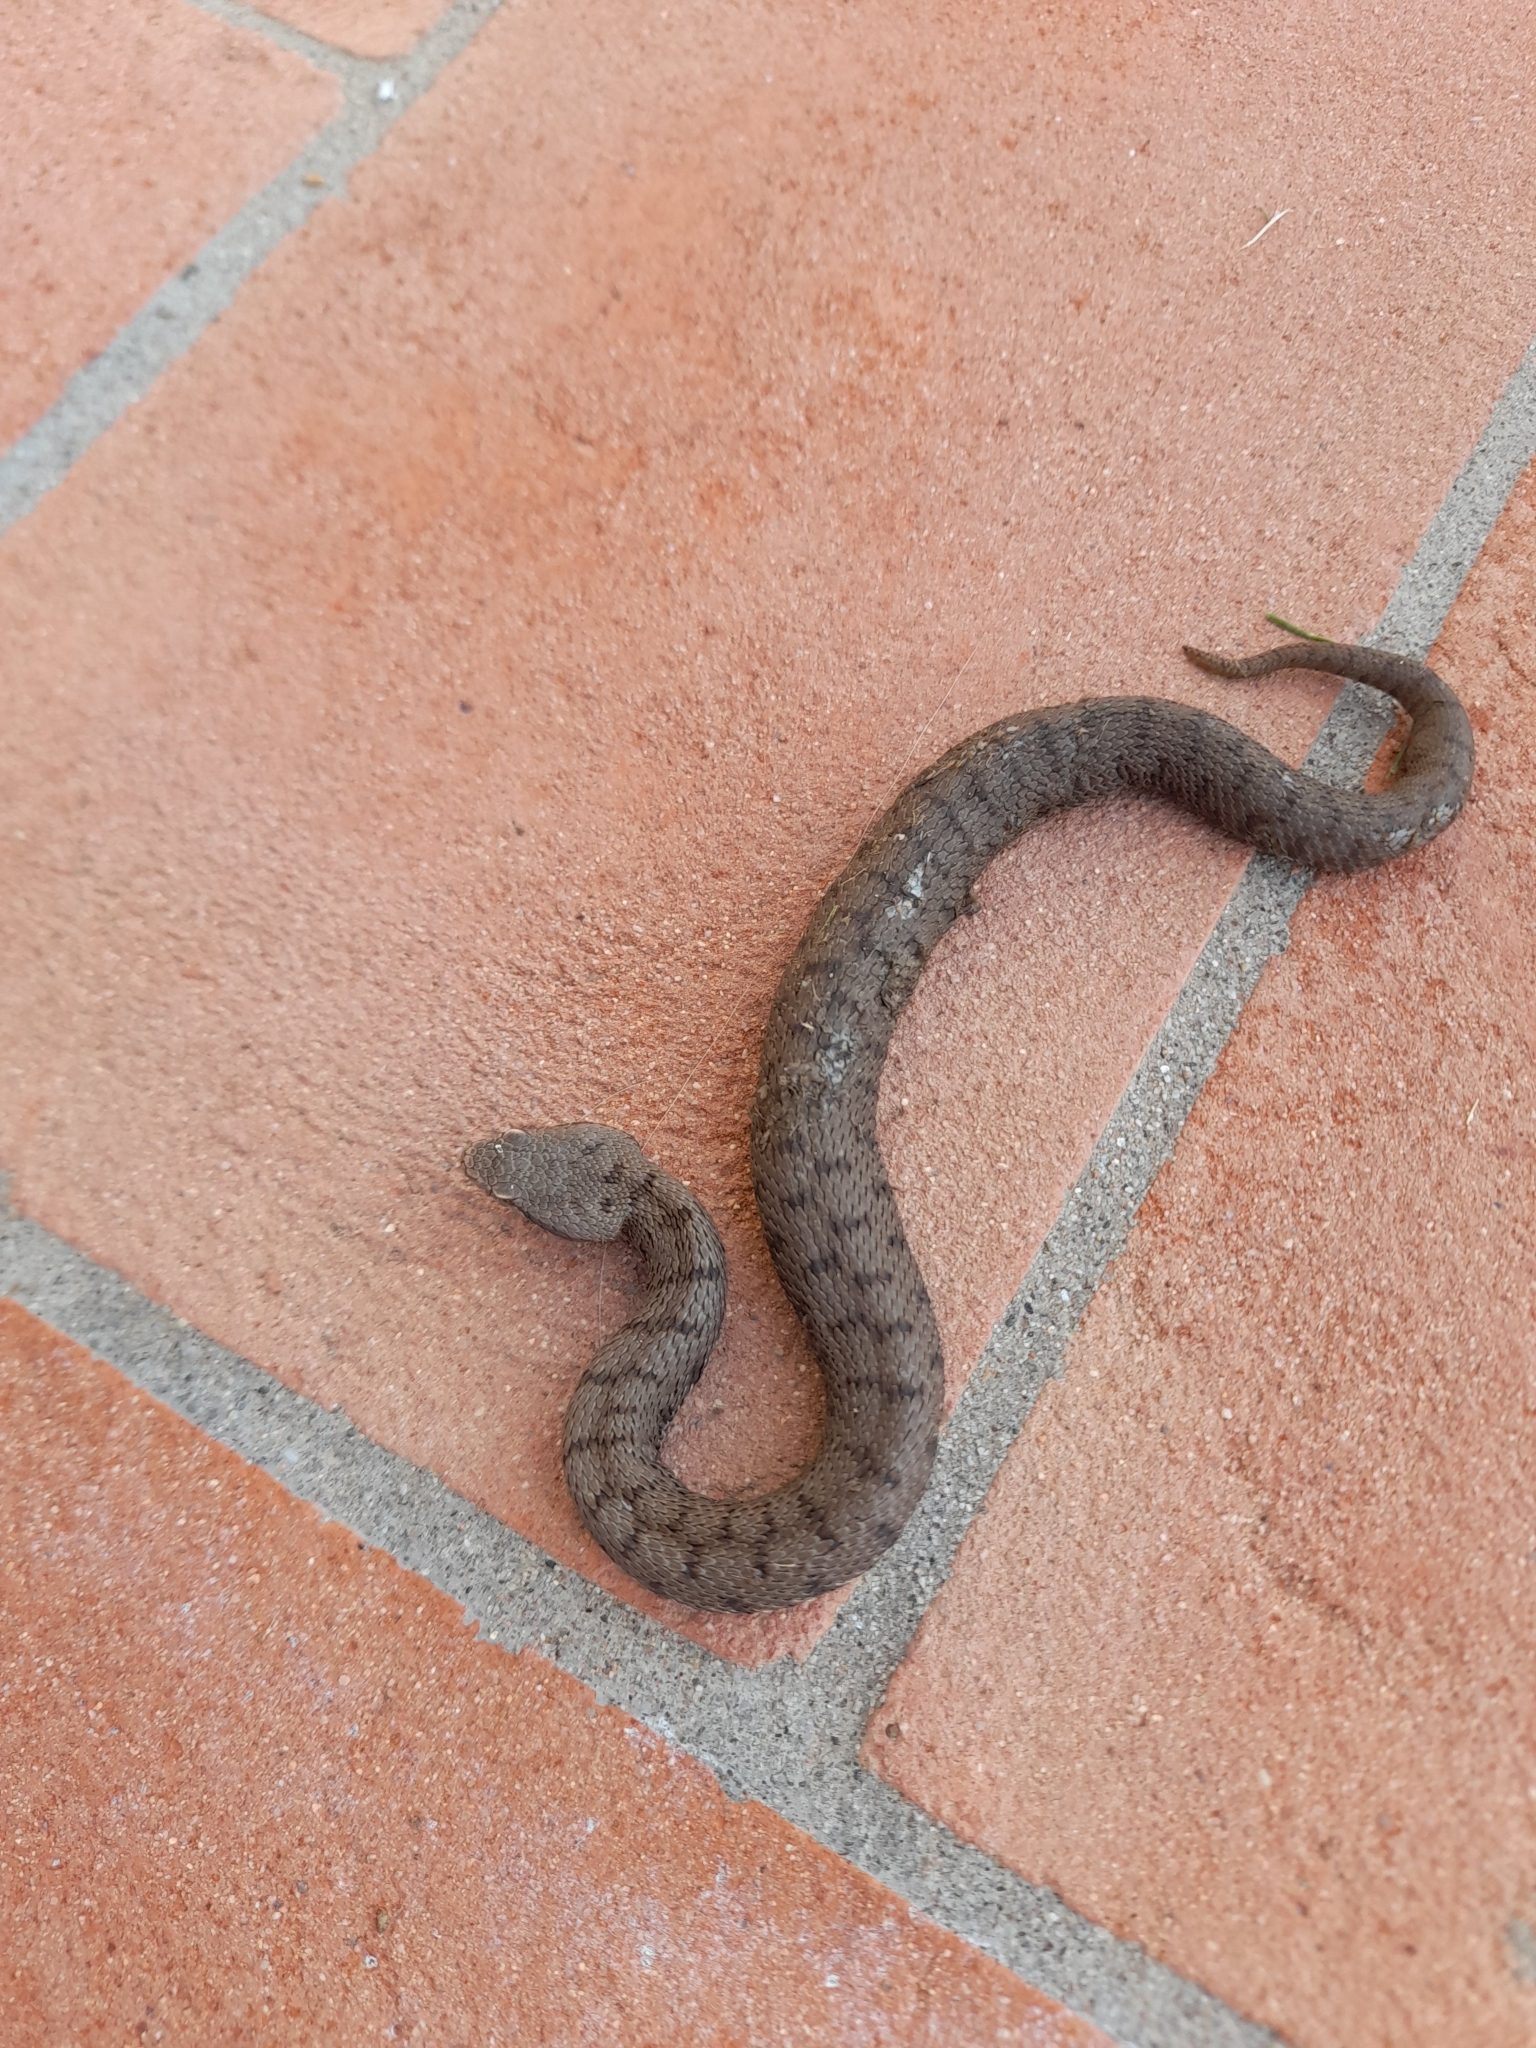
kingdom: Animalia
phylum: Chordata
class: Squamata
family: Viperidae
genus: Vipera
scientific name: Vipera aspis
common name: Asp viper
